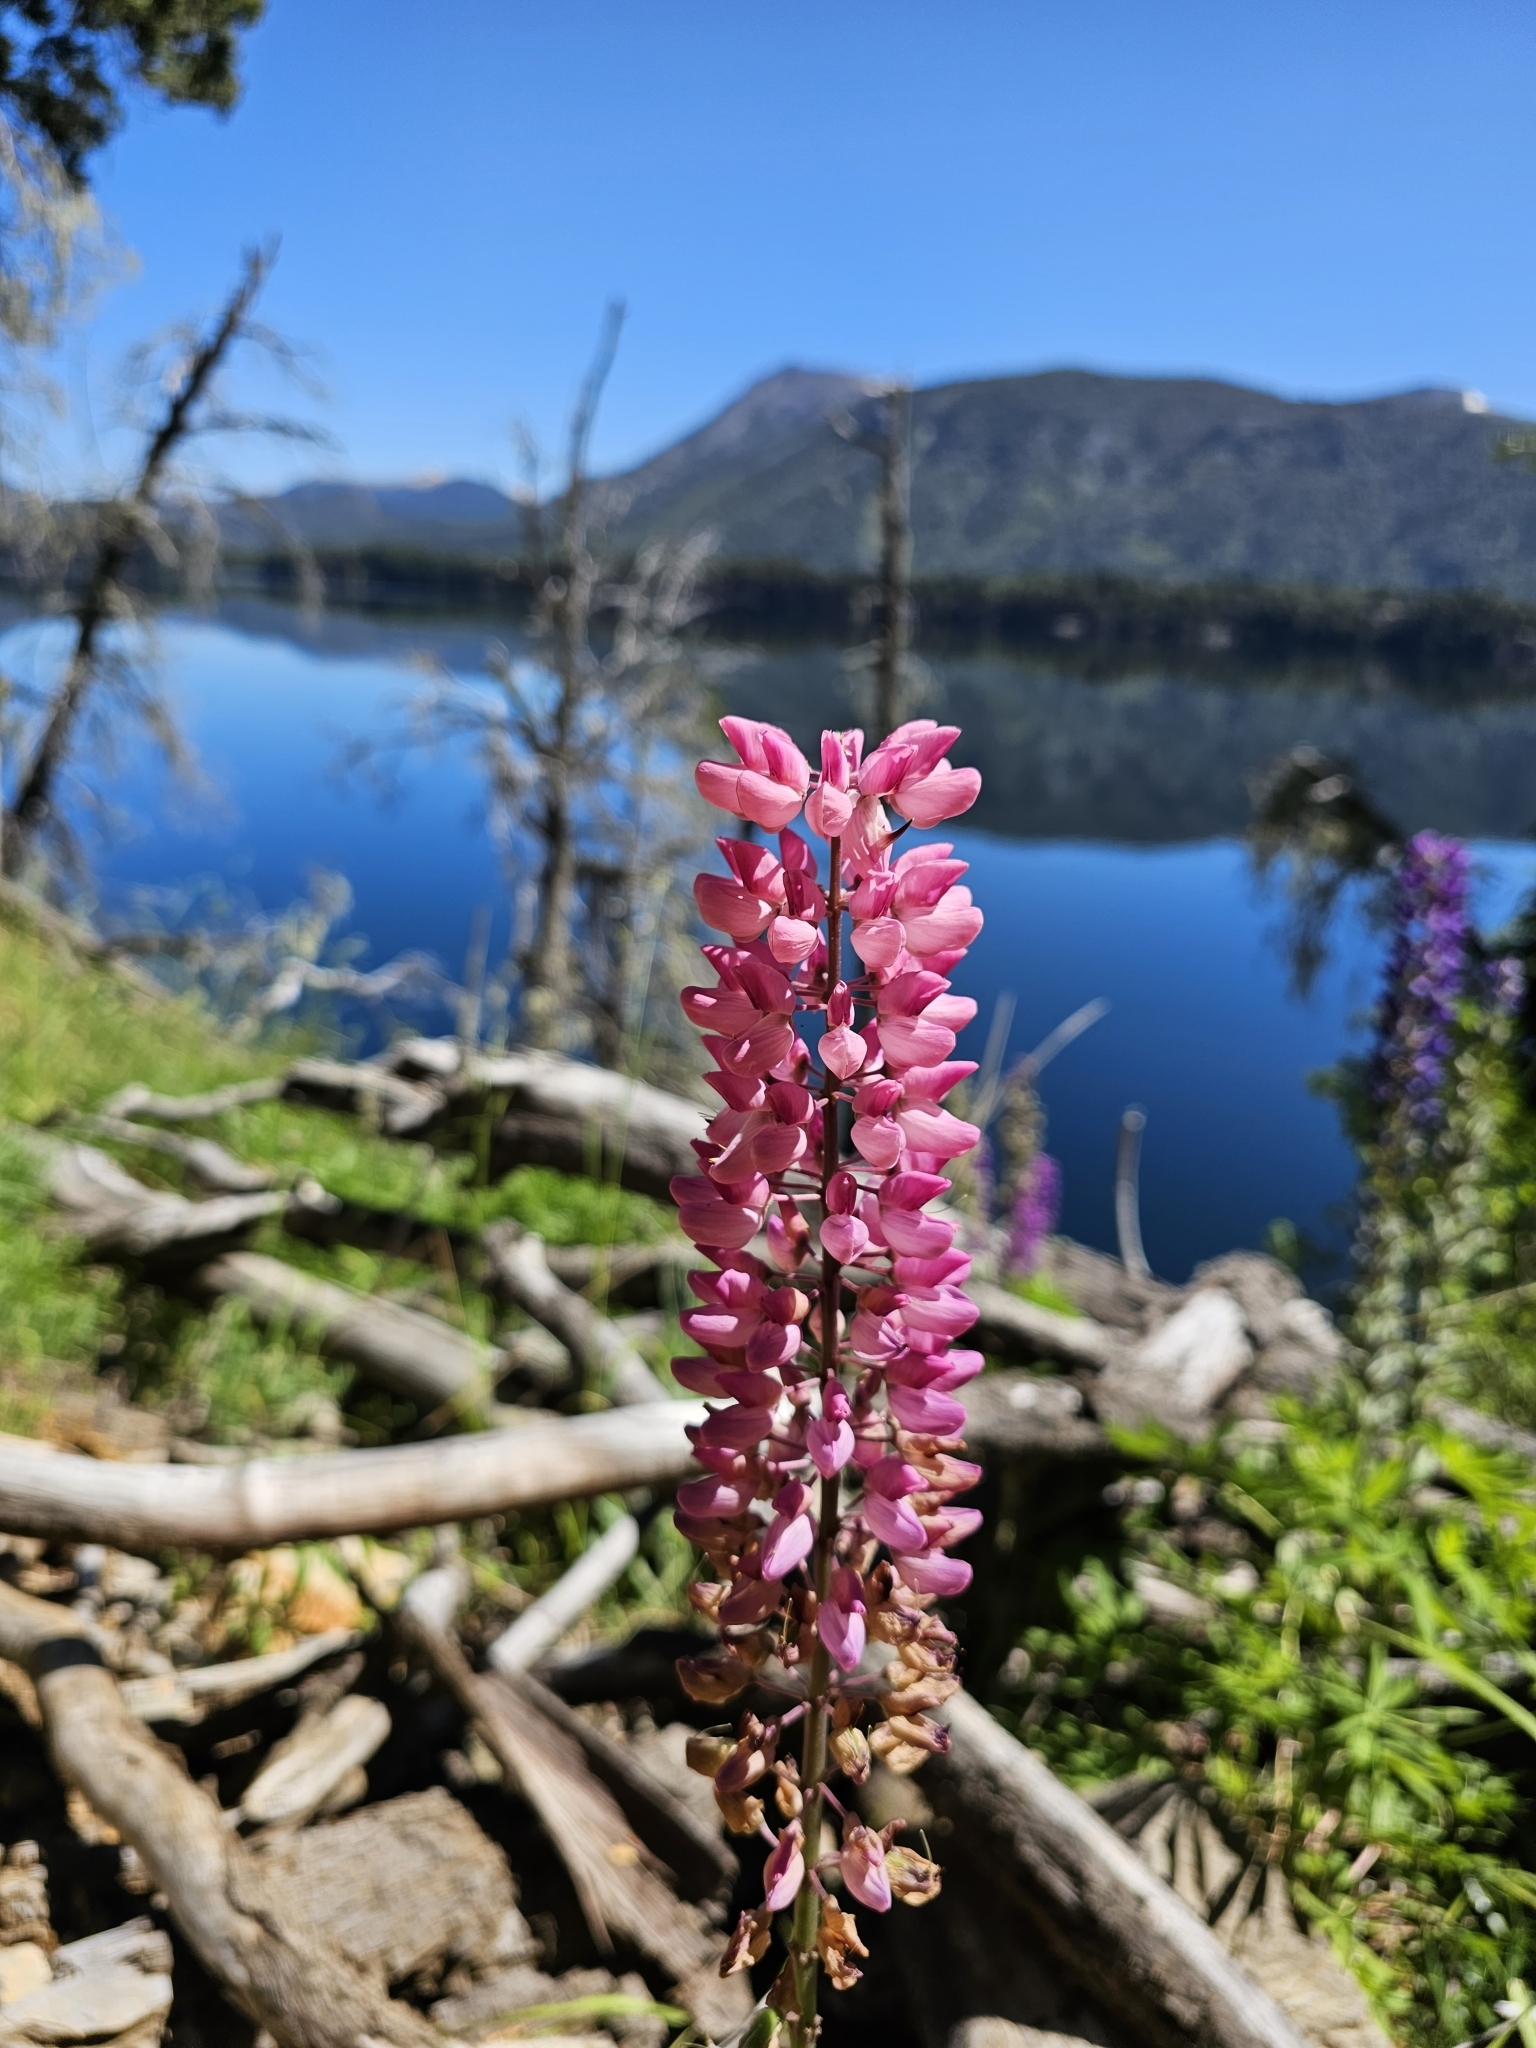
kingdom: Plantae
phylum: Tracheophyta
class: Magnoliopsida
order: Fabales
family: Fabaceae
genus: Lupinus
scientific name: Lupinus polyphyllus
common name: Garden lupin
